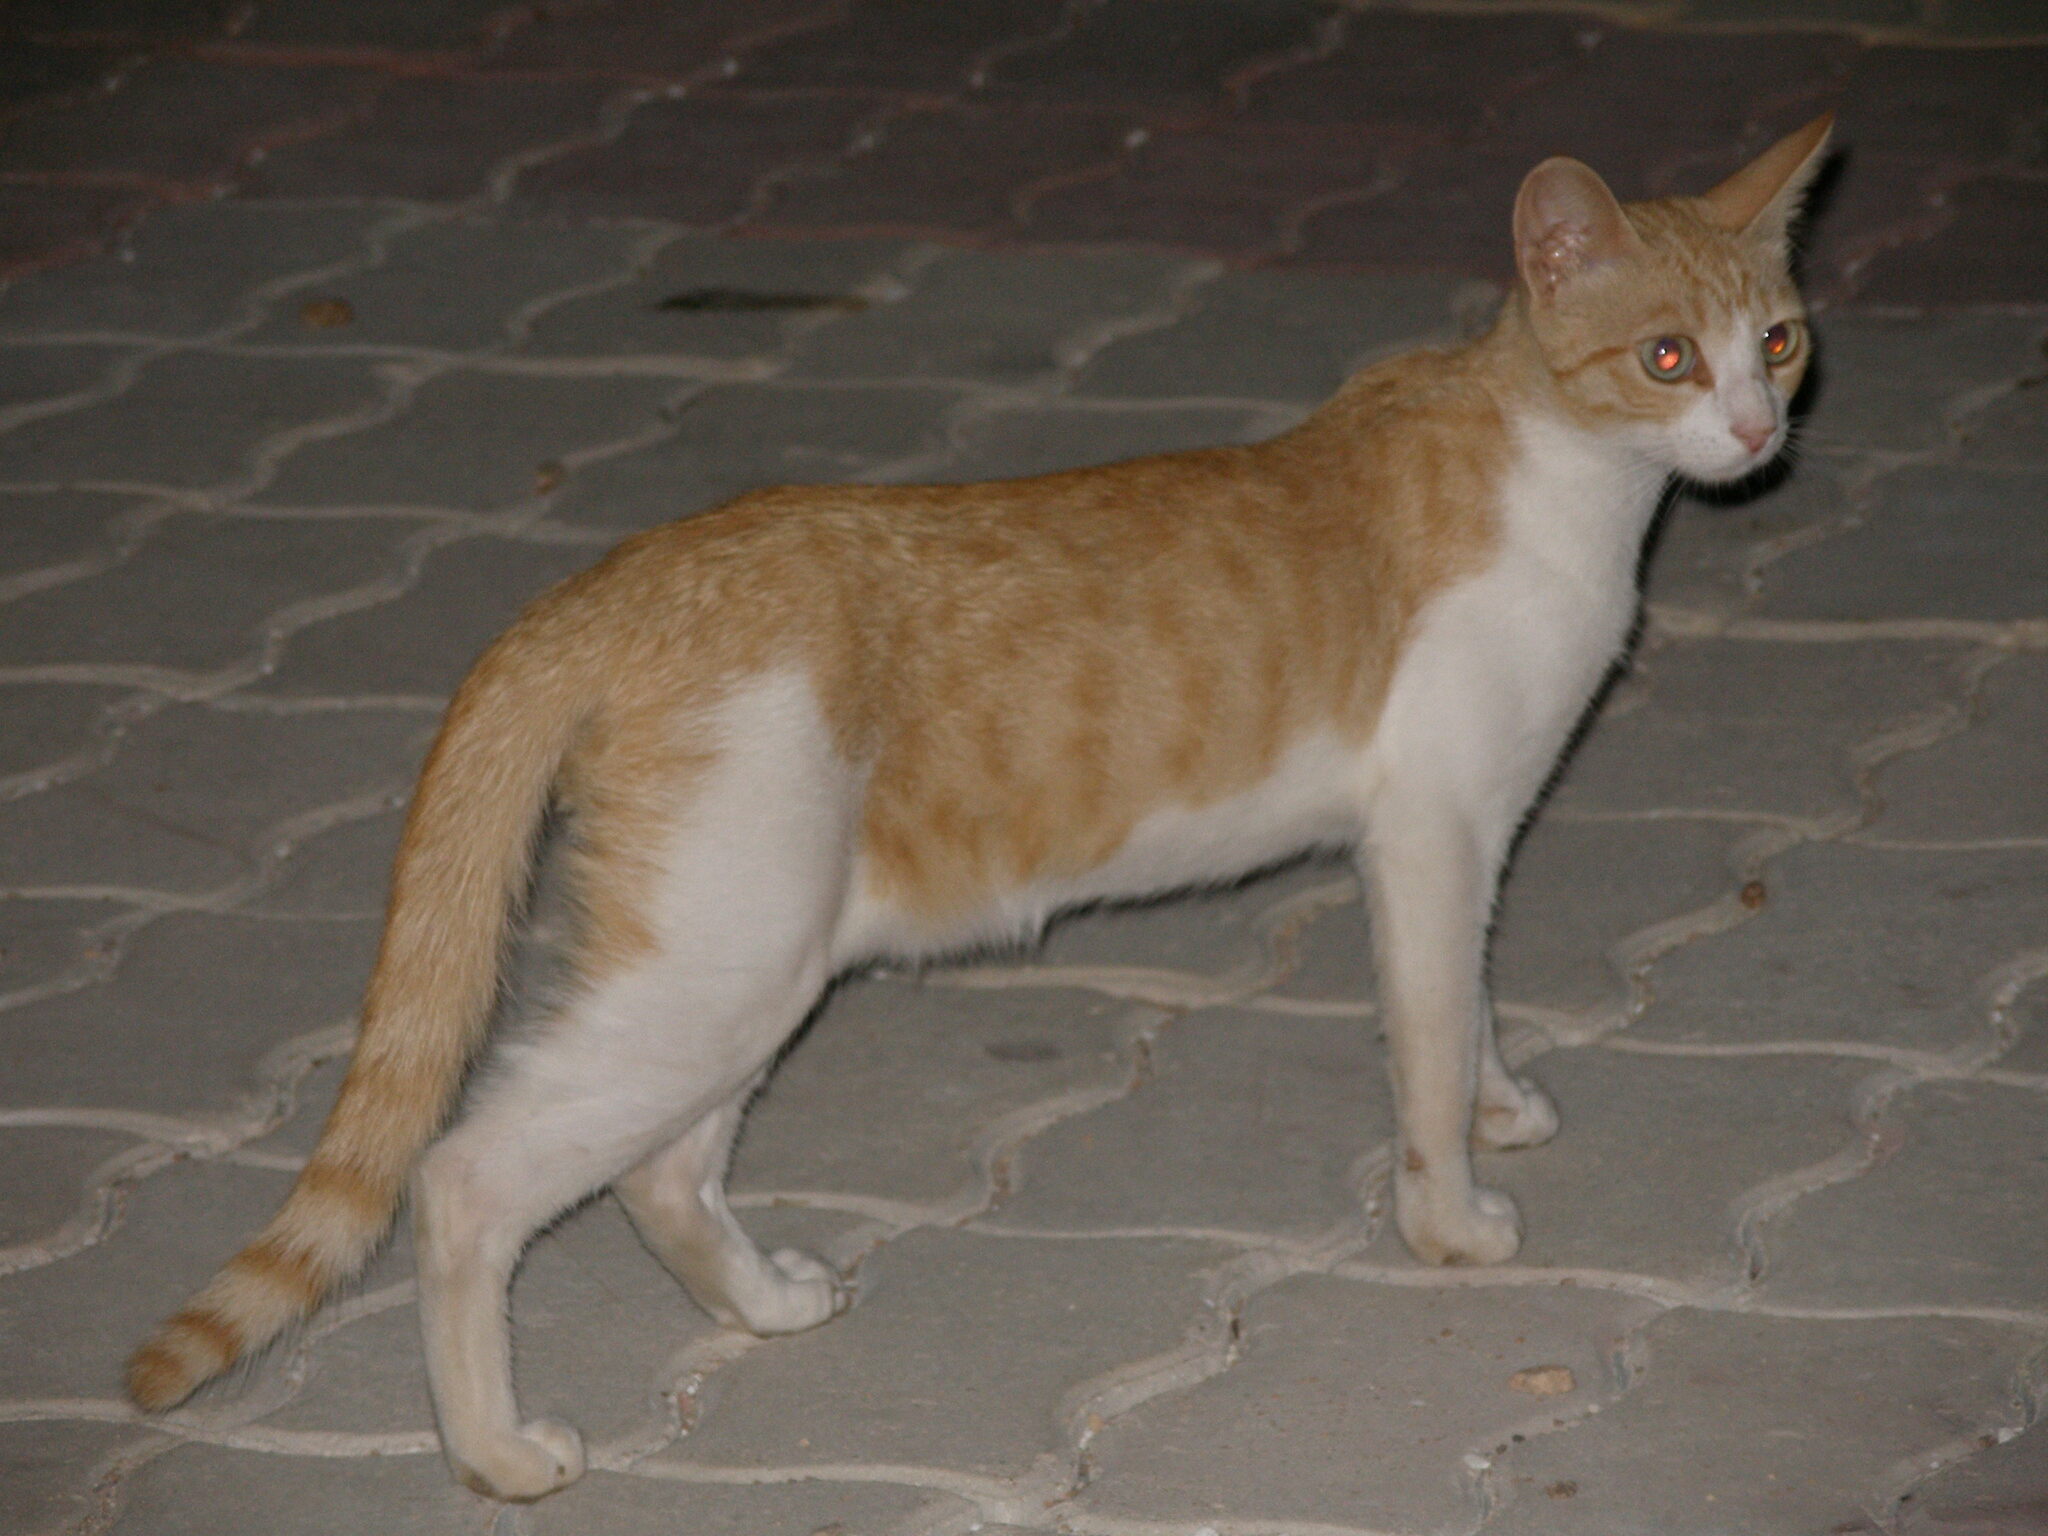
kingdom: Animalia
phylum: Chordata
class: Mammalia
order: Carnivora
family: Felidae
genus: Felis
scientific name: Felis catus
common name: Domestic cat
